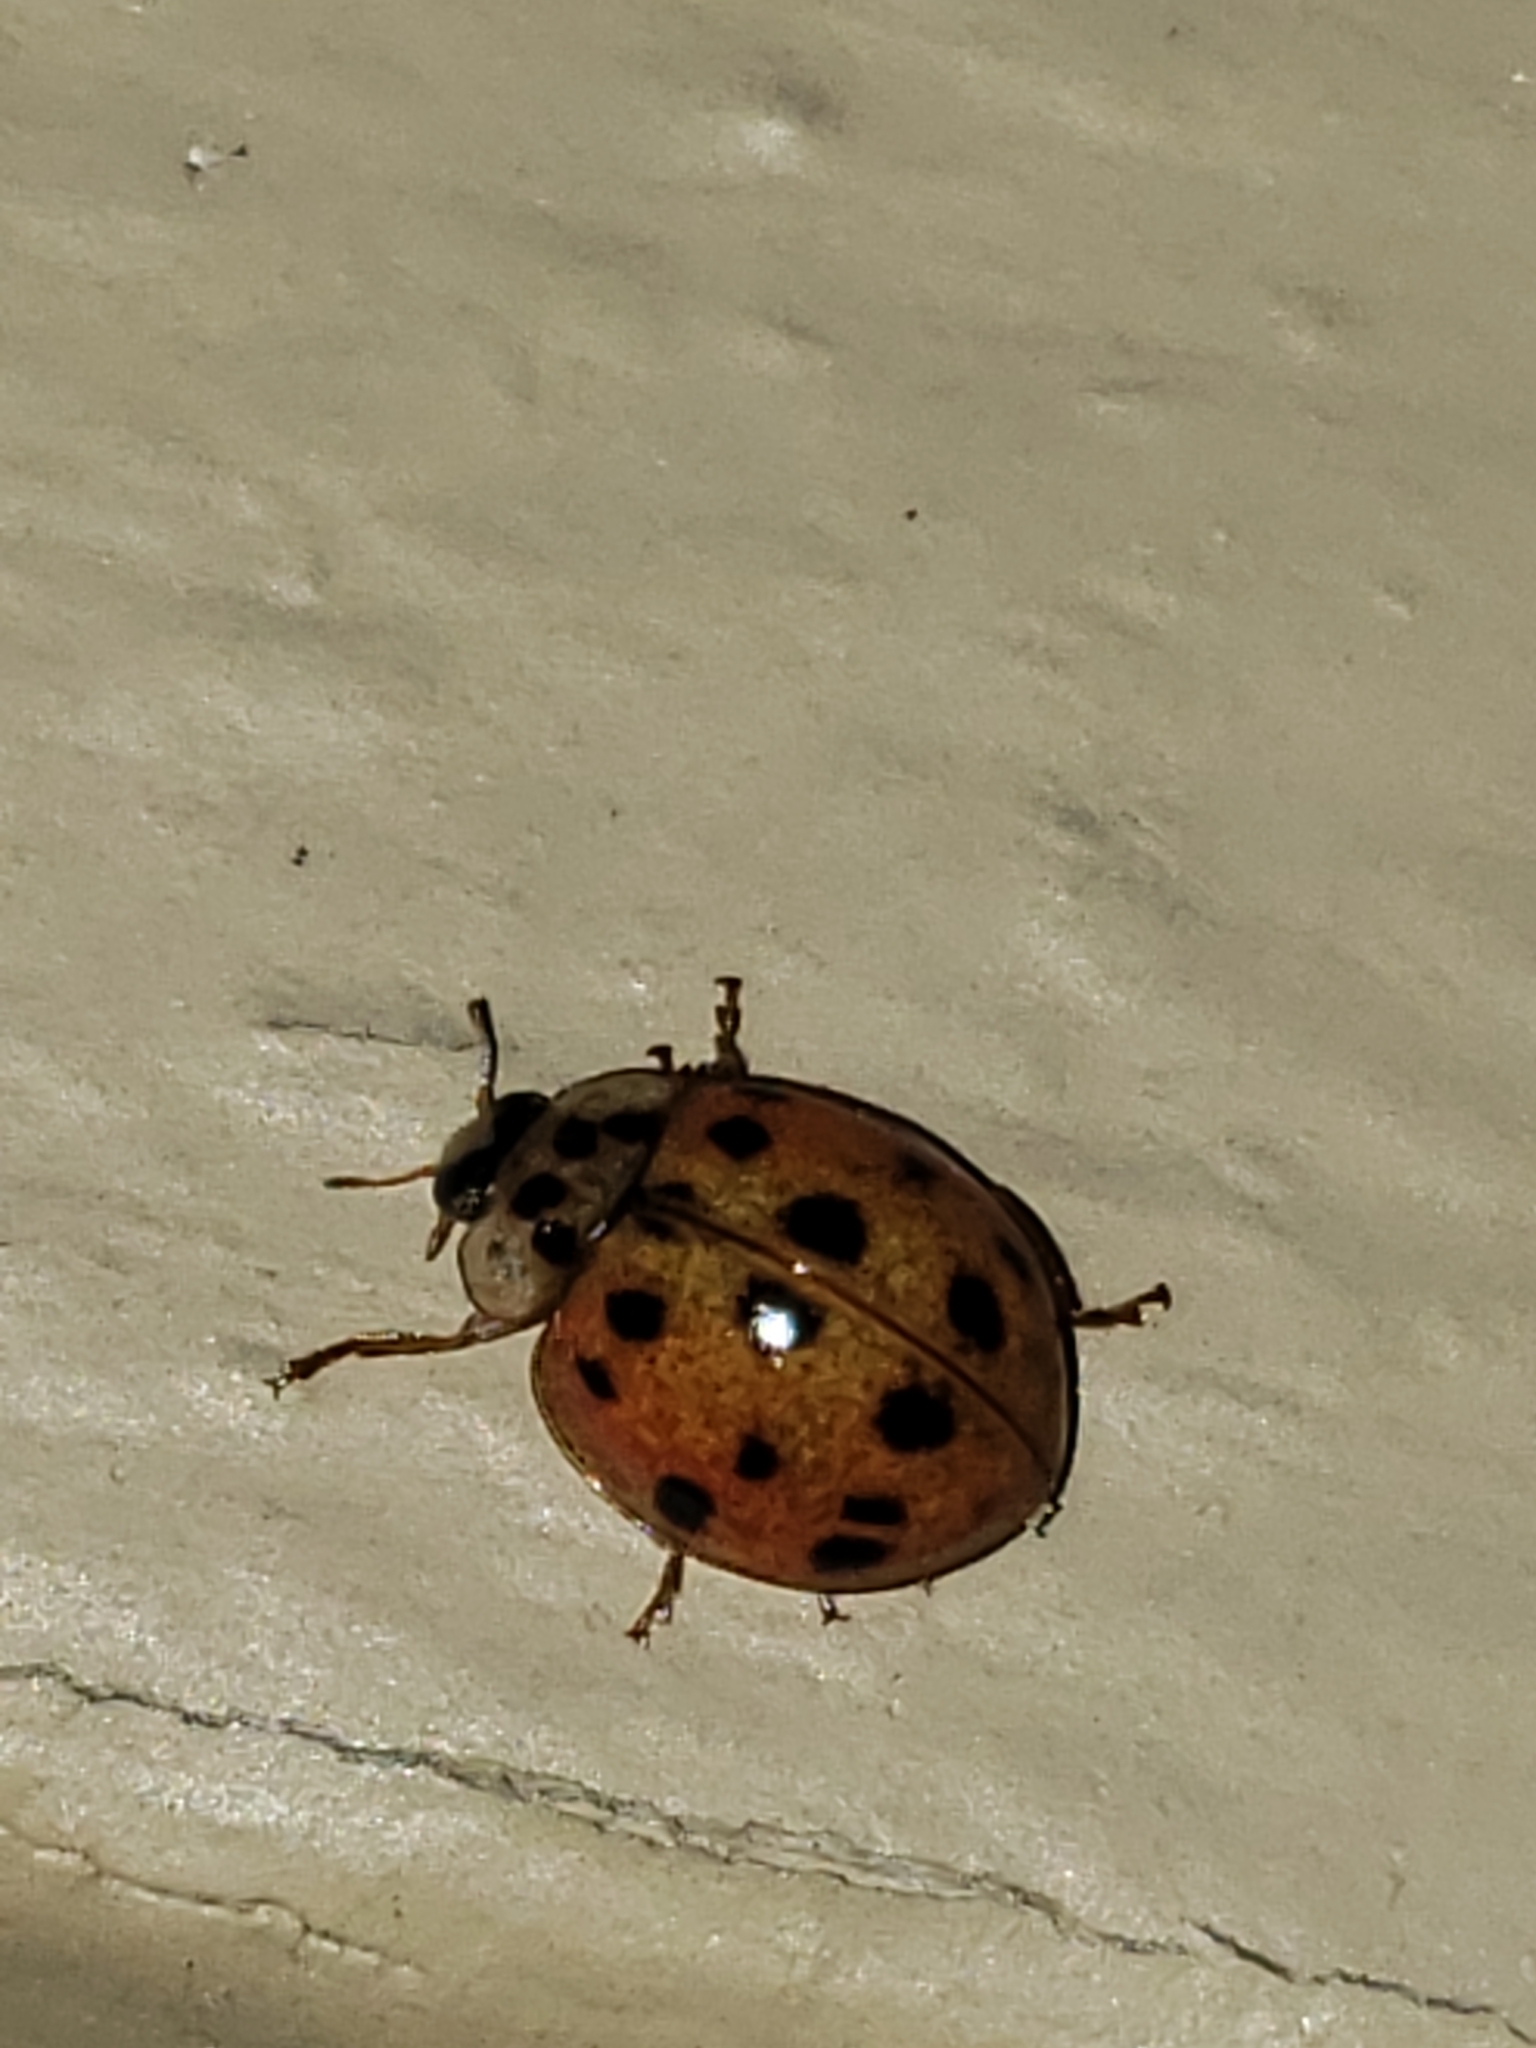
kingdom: Animalia
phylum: Arthropoda
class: Insecta
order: Coleoptera
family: Coccinellidae
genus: Harmonia
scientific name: Harmonia axyridis
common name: Harlequin ladybird
